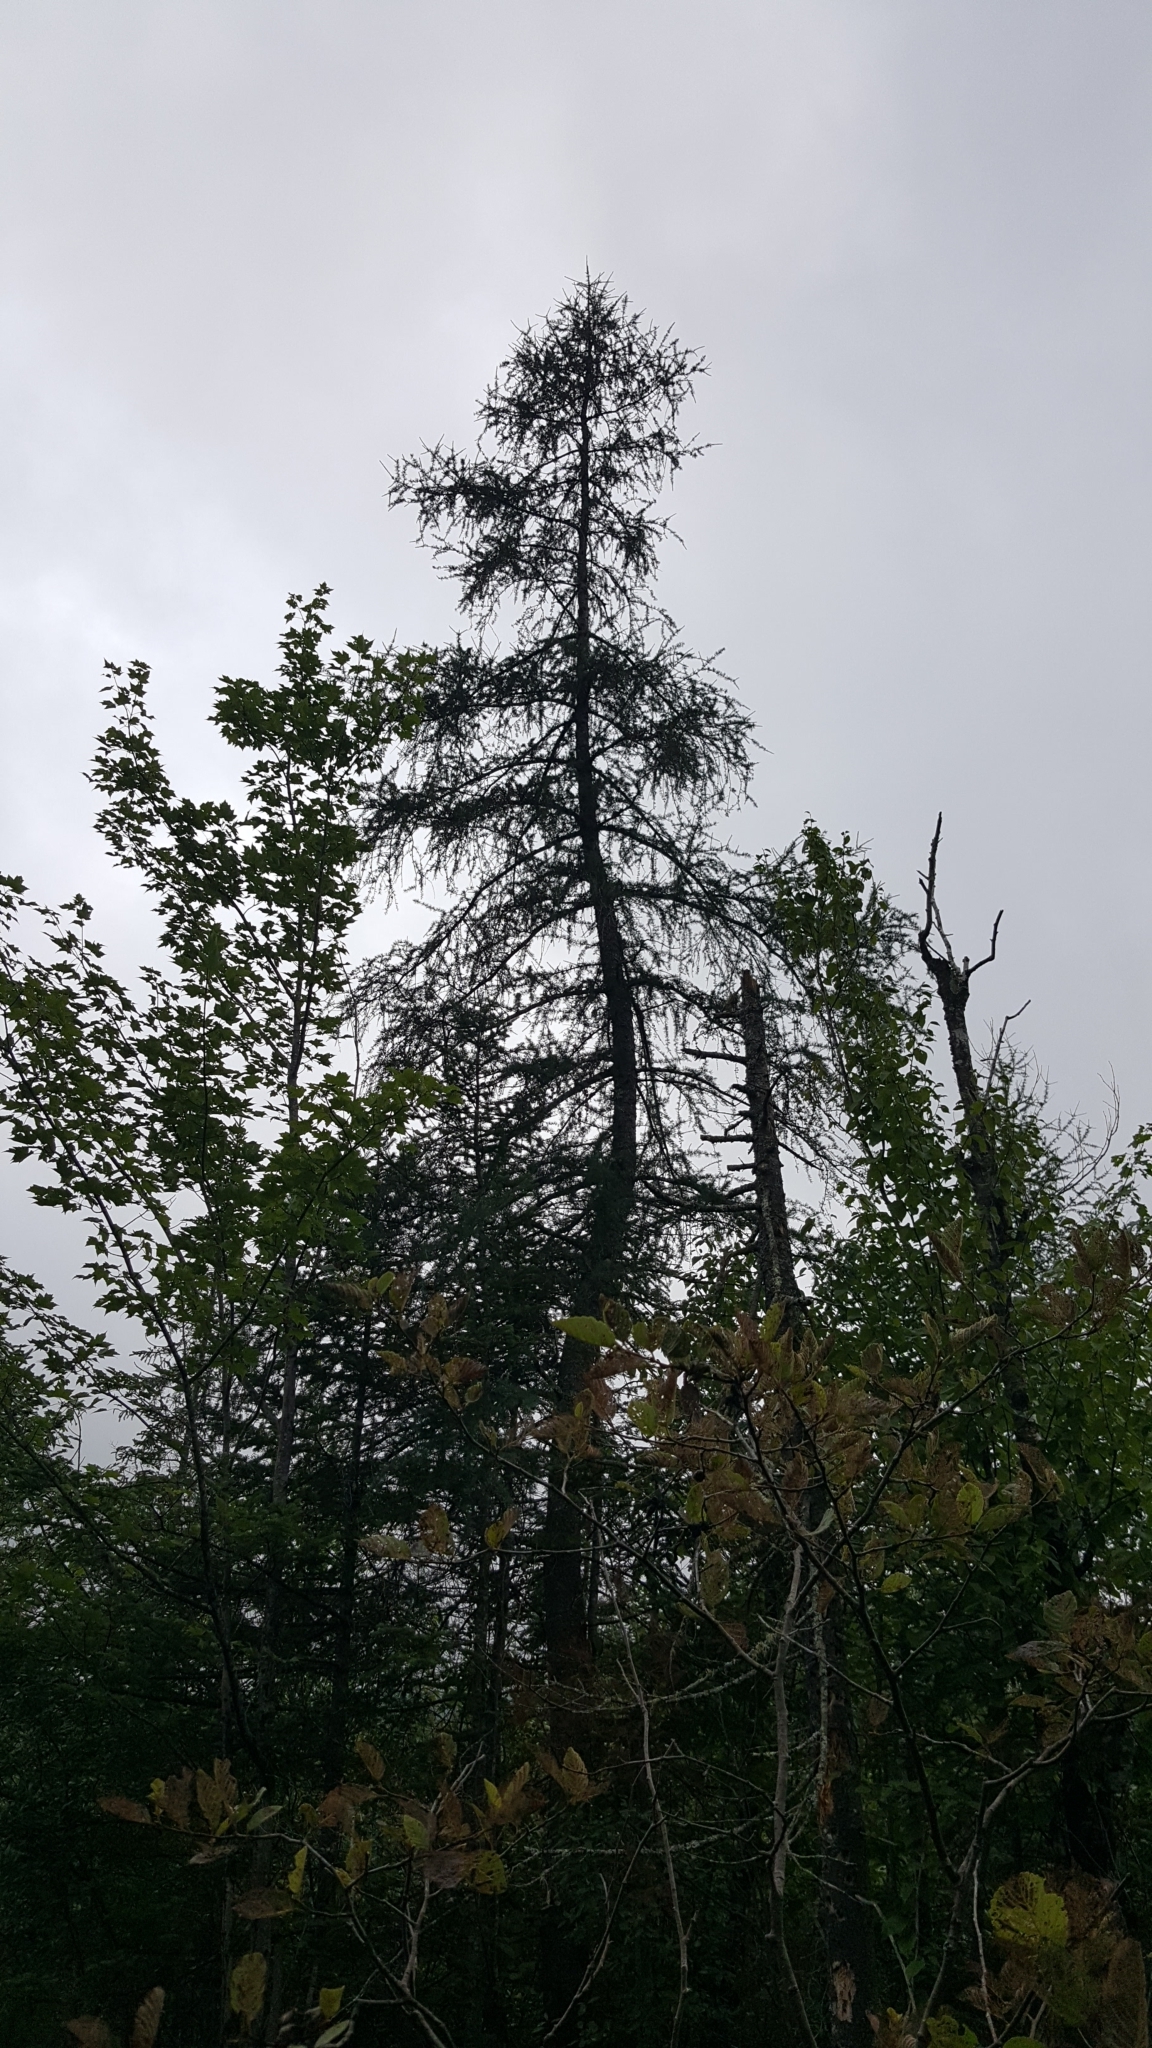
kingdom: Plantae
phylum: Tracheophyta
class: Pinopsida
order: Pinales
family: Pinaceae
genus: Larix
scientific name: Larix laricina
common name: American larch
